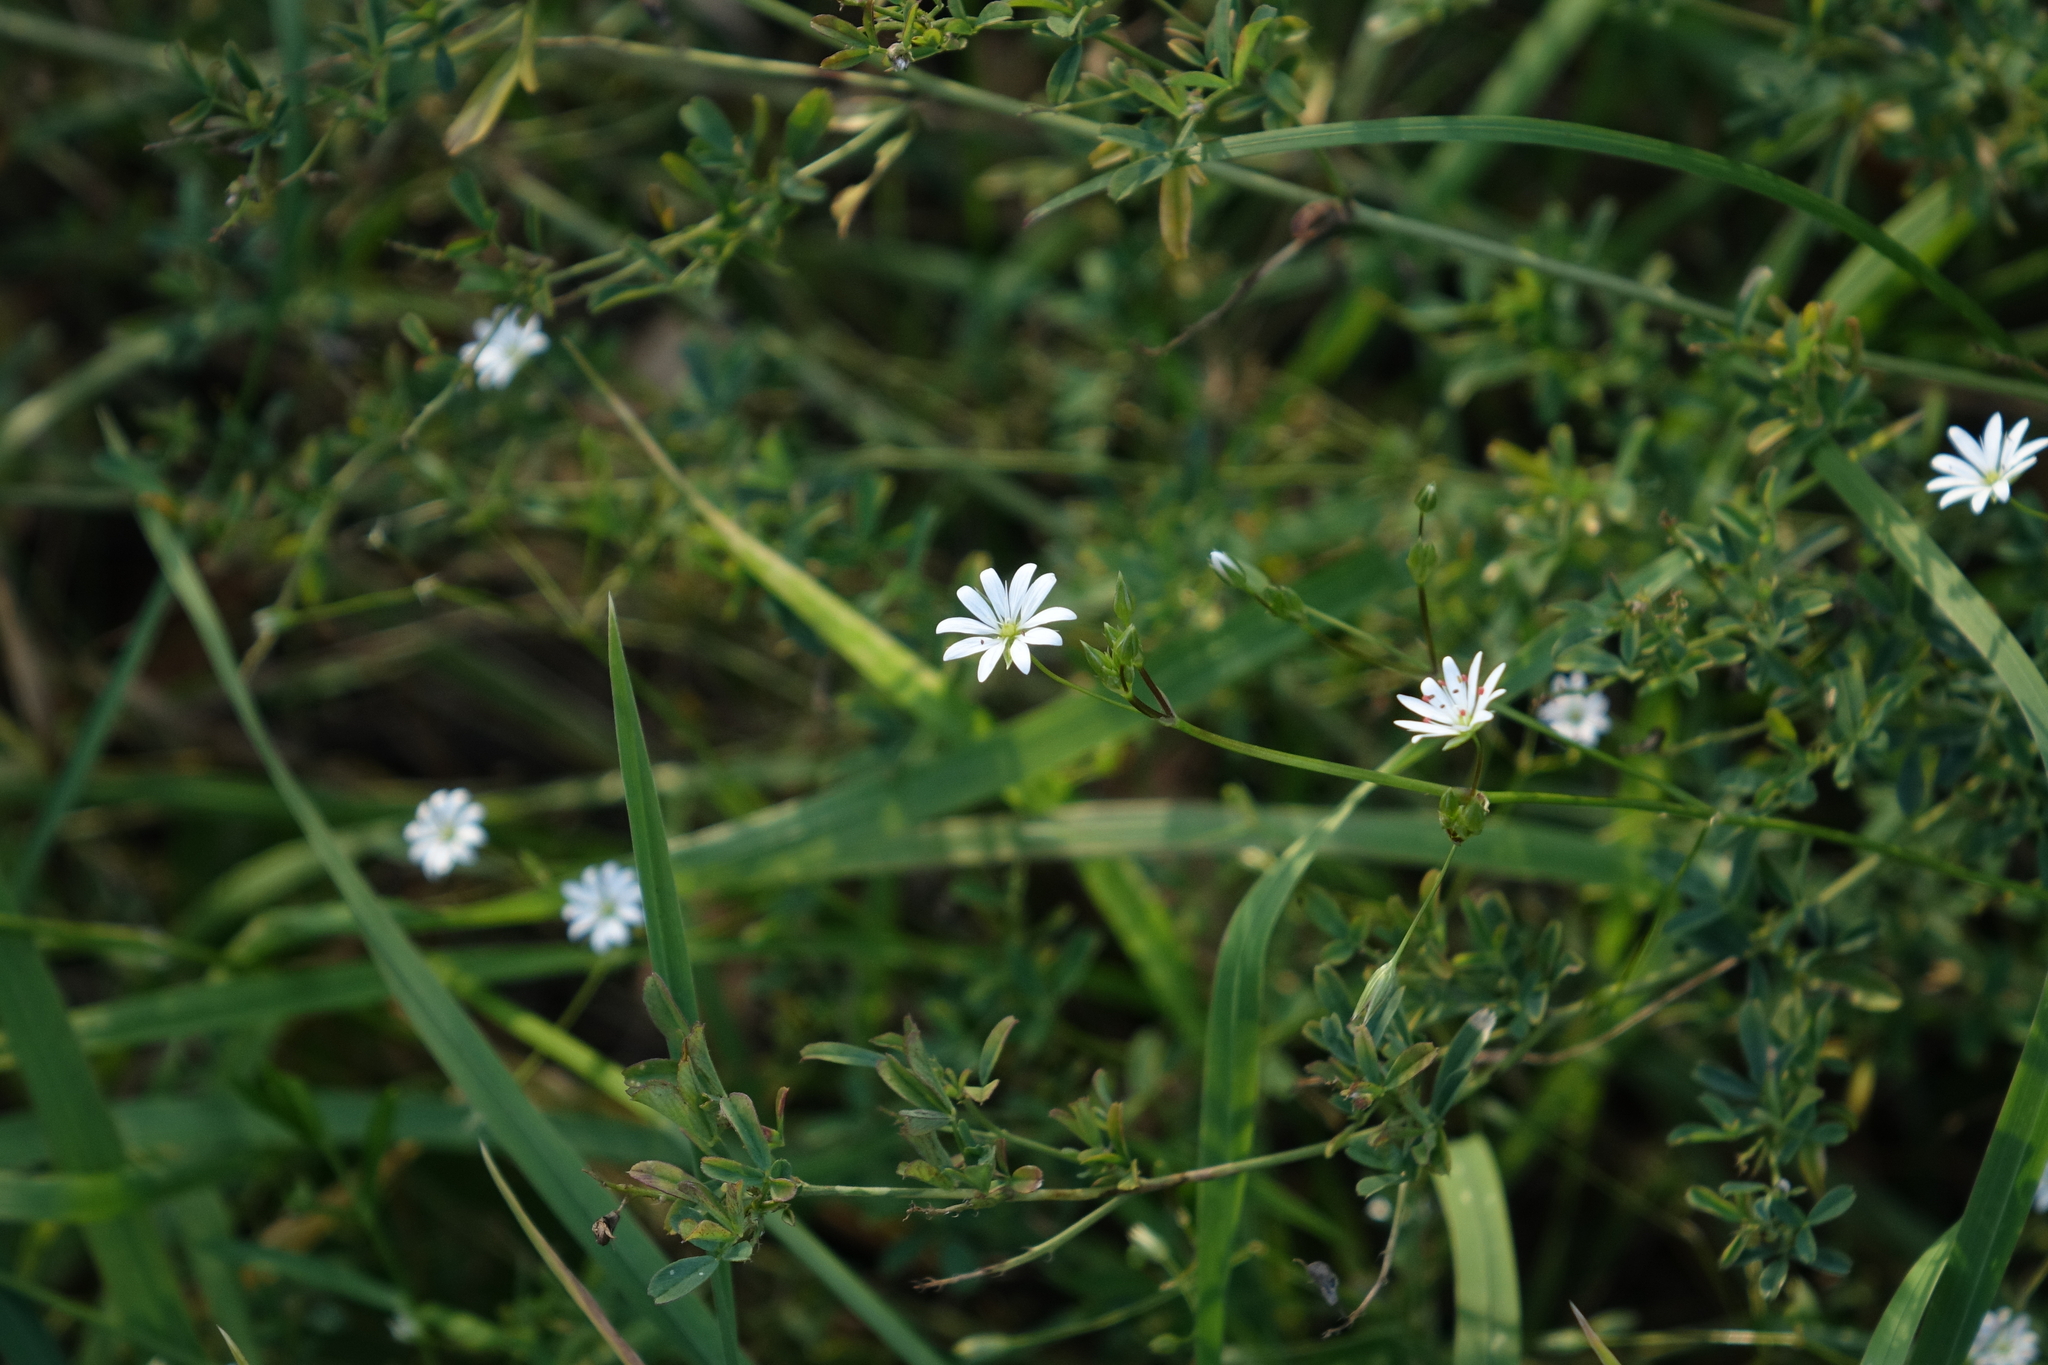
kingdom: Plantae
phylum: Tracheophyta
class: Magnoliopsida
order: Caryophyllales
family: Caryophyllaceae
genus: Stellaria
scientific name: Stellaria graminea
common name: Grass-like starwort
